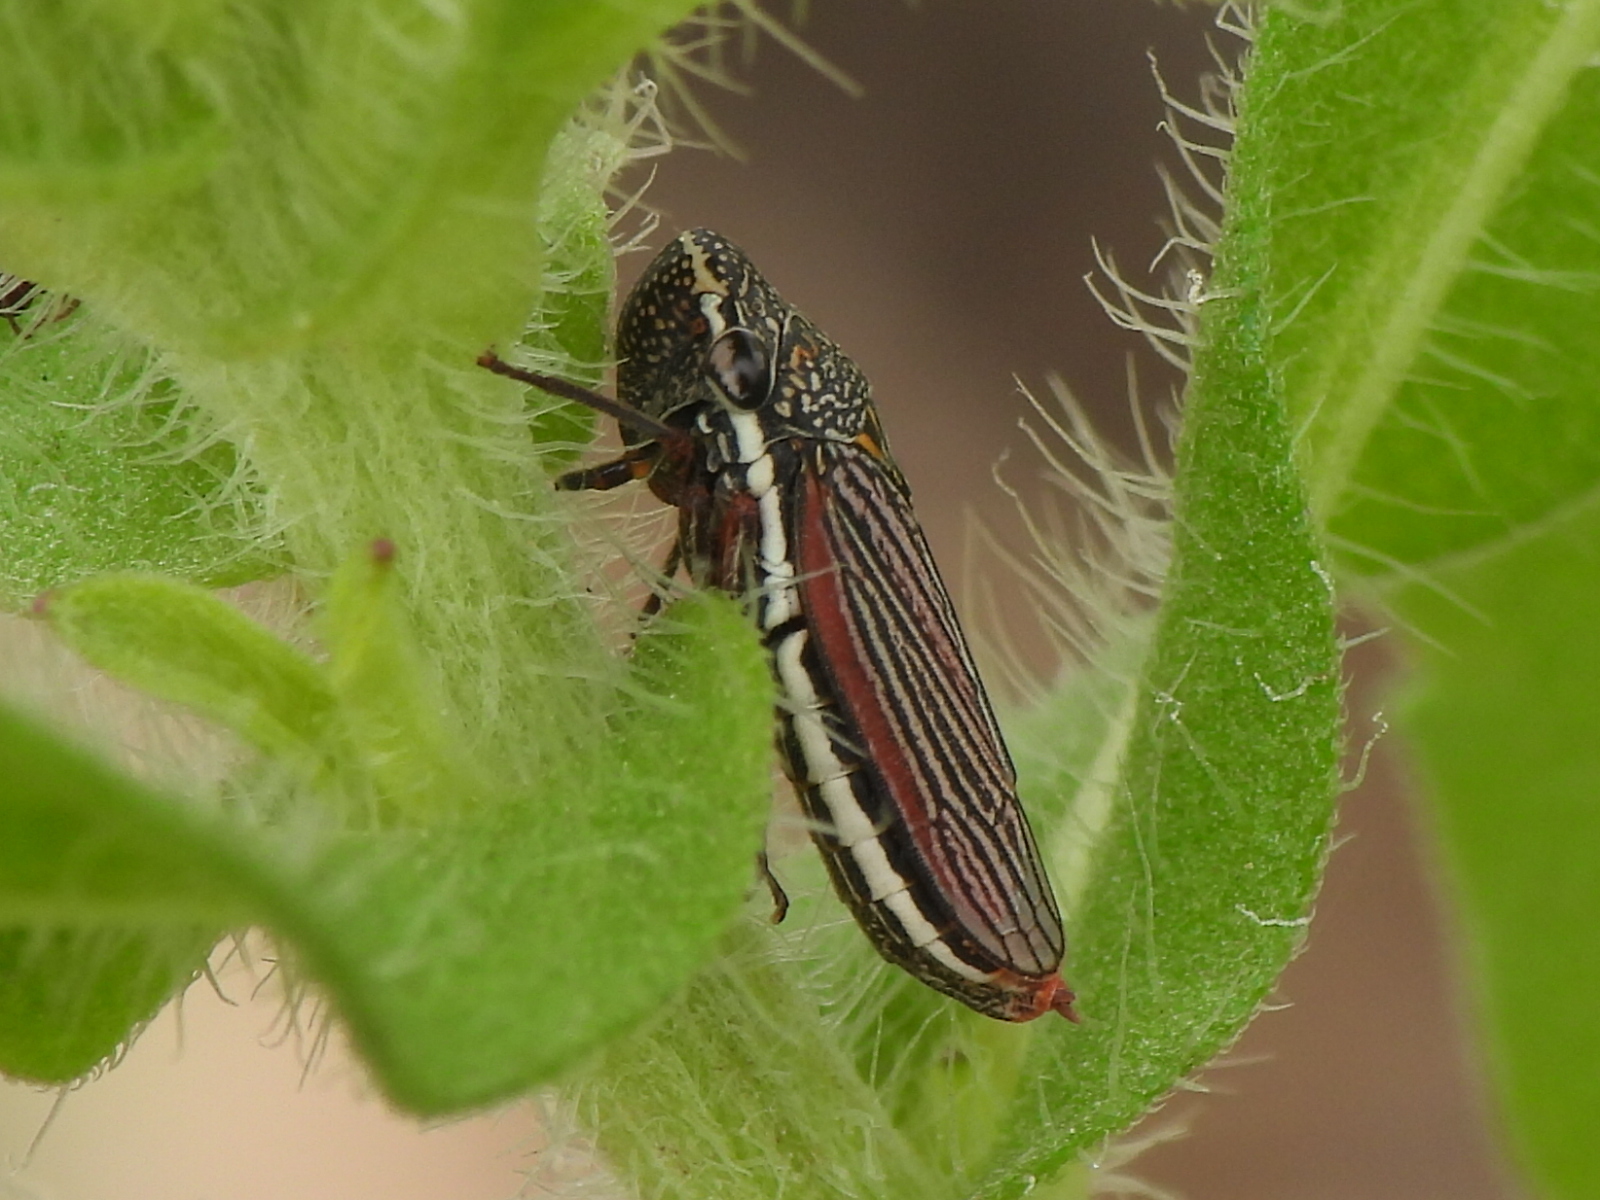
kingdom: Animalia
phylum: Arthropoda
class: Insecta
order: Hemiptera
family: Cicadellidae
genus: Cuerna
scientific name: Cuerna costalis
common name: Lateral-lined sharpshooter
